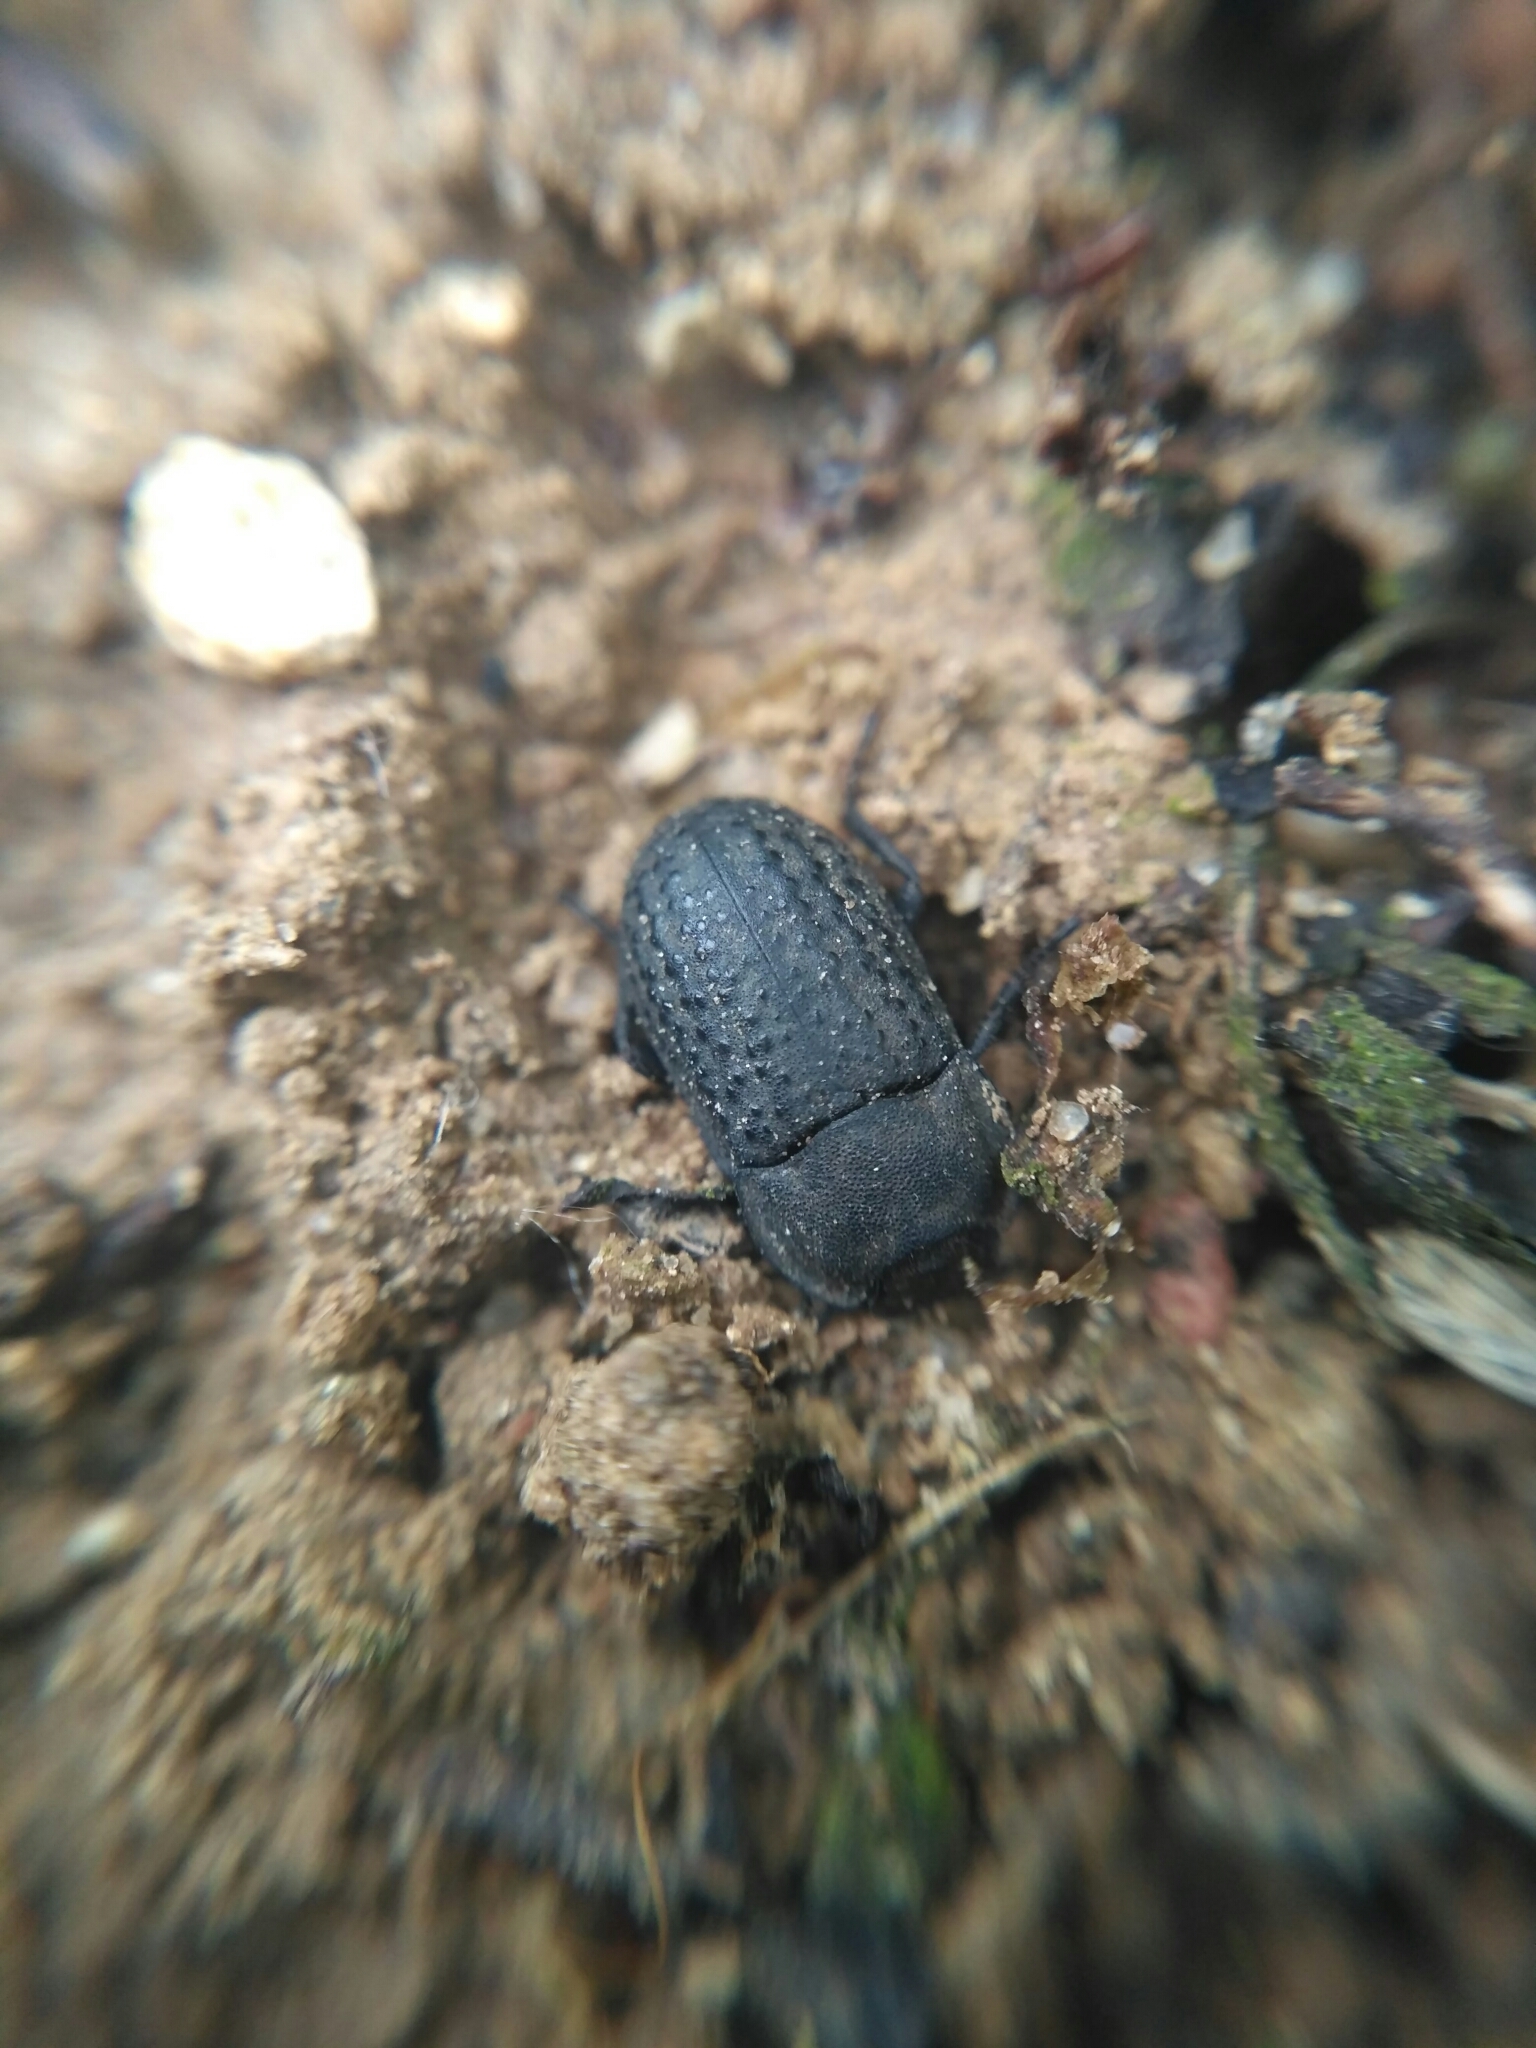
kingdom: Animalia
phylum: Arthropoda
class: Insecta
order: Coleoptera
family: Tenebrionidae
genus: Opatrum
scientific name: Opatrum sabulosum
